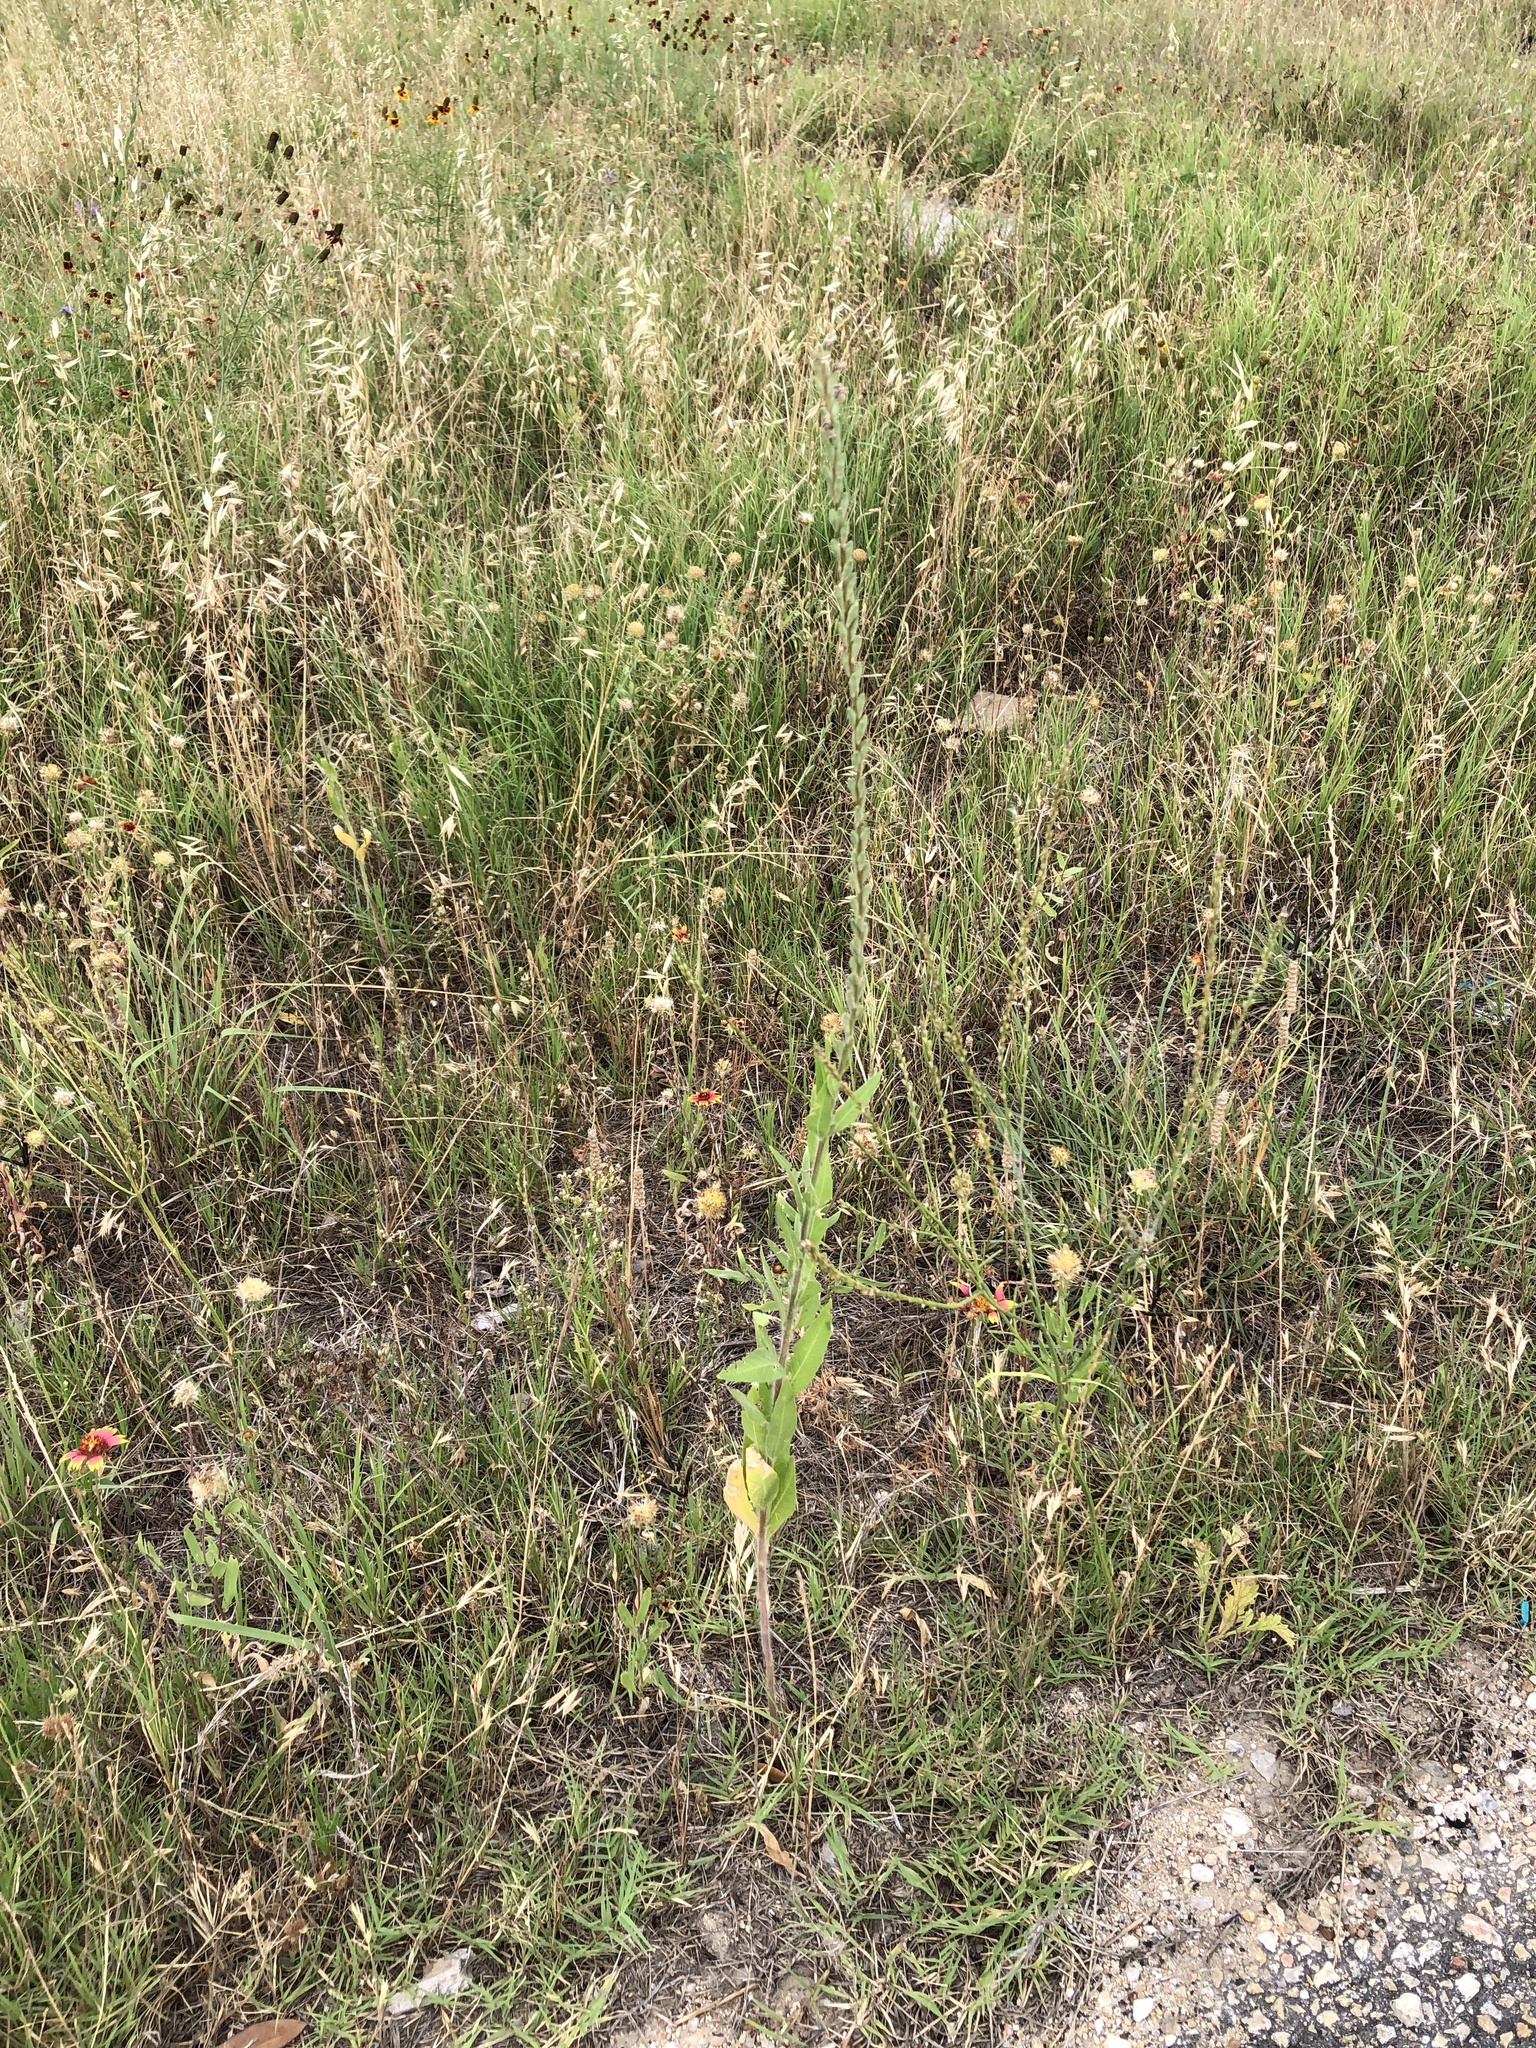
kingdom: Plantae
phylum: Tracheophyta
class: Magnoliopsida
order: Myrtales
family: Onagraceae
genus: Oenothera
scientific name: Oenothera curtiflora
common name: Velvetweed
